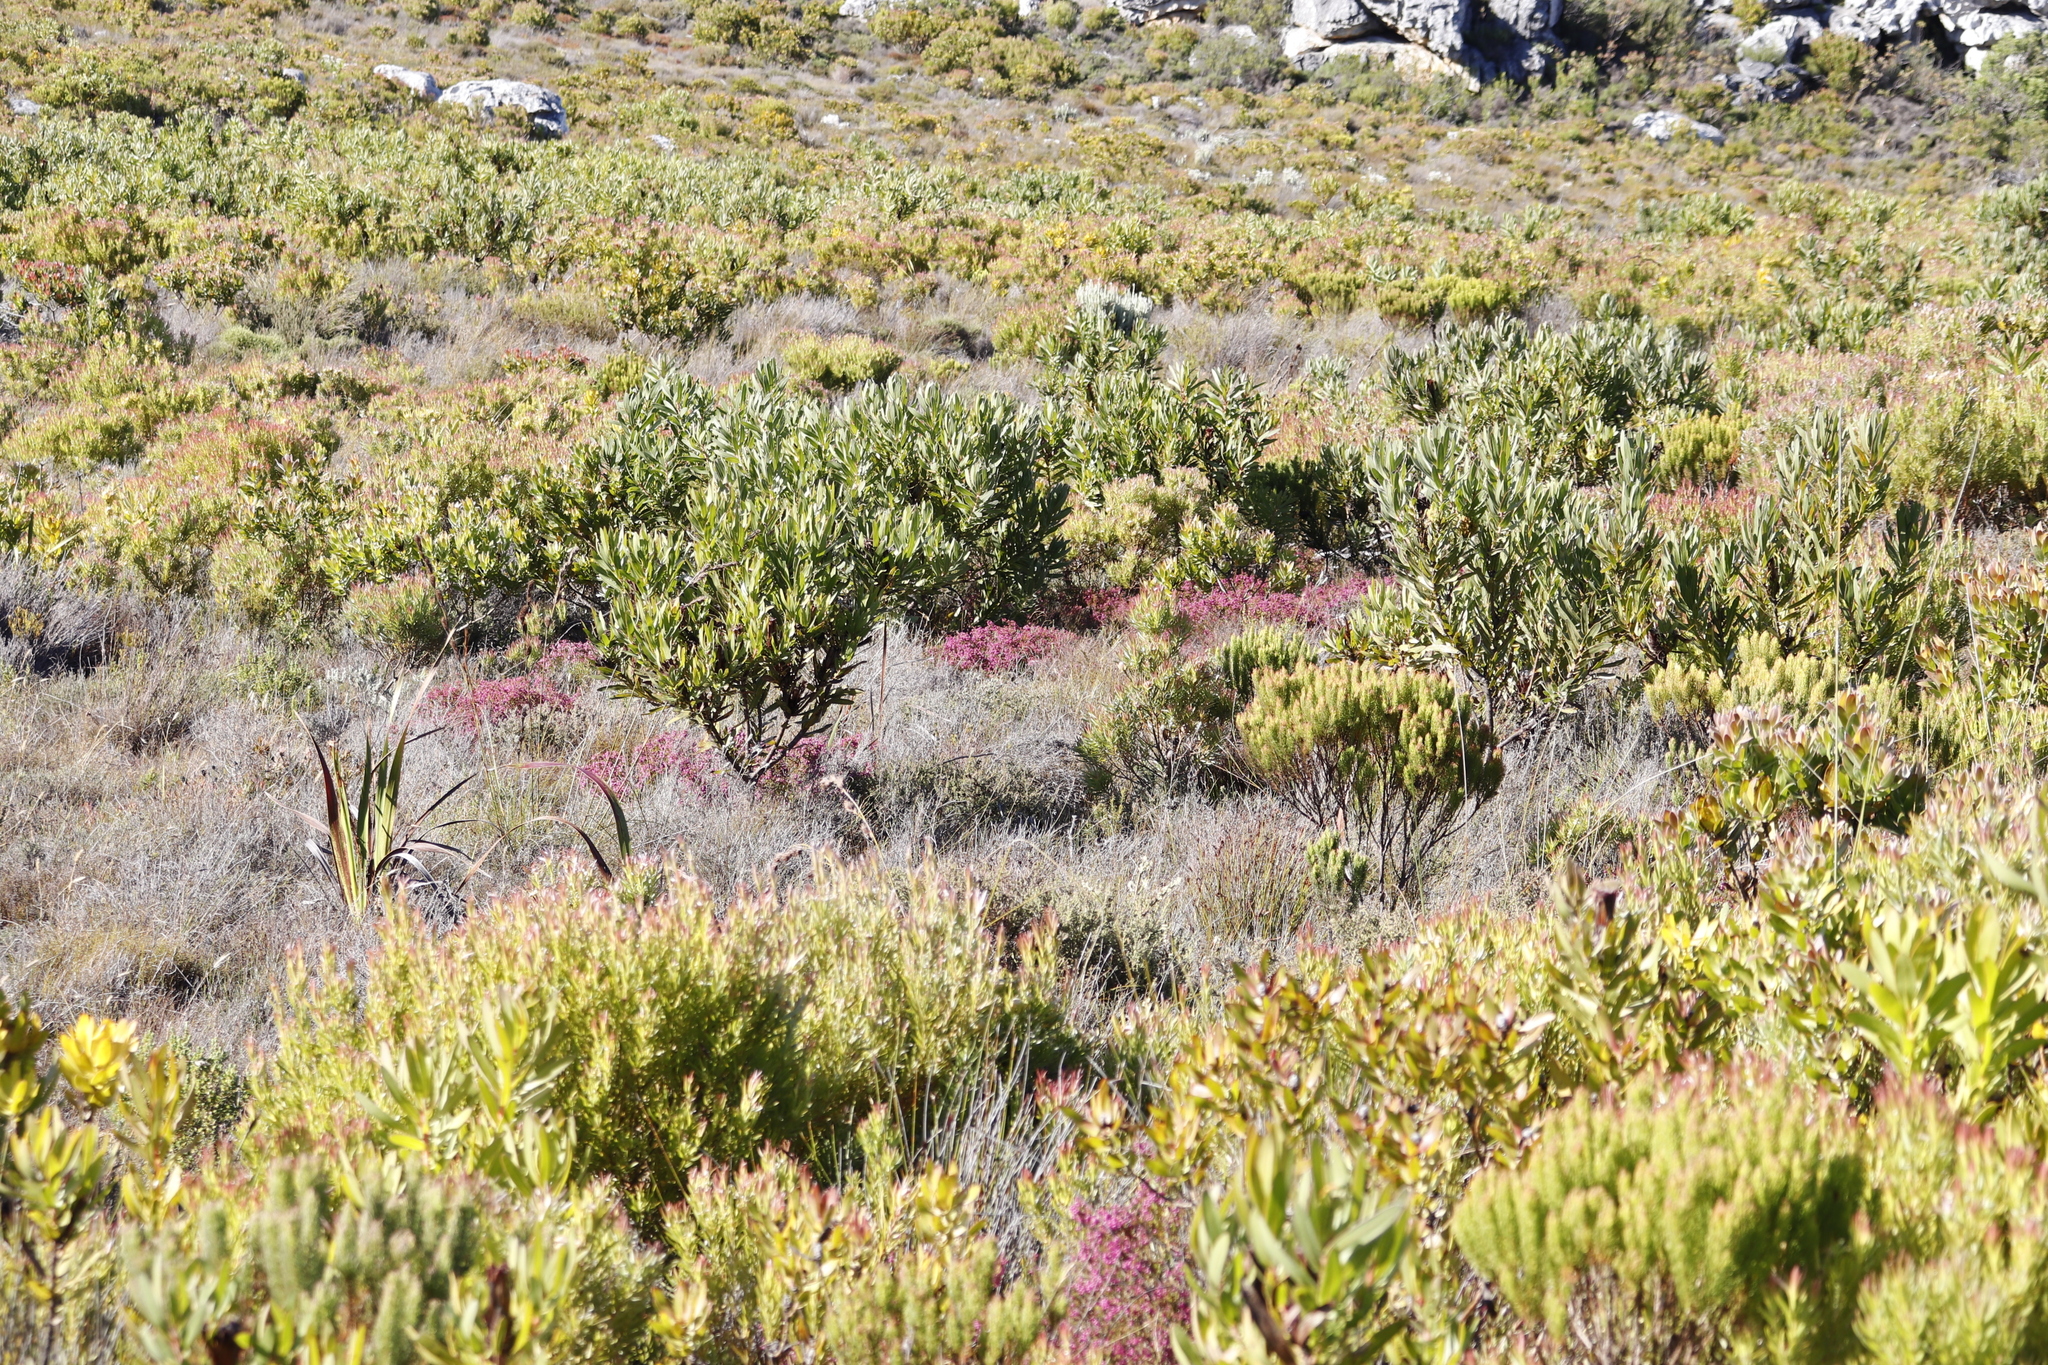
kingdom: Plantae
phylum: Tracheophyta
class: Magnoliopsida
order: Ericales
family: Ericaceae
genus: Erica
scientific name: Erica multumbellifera
